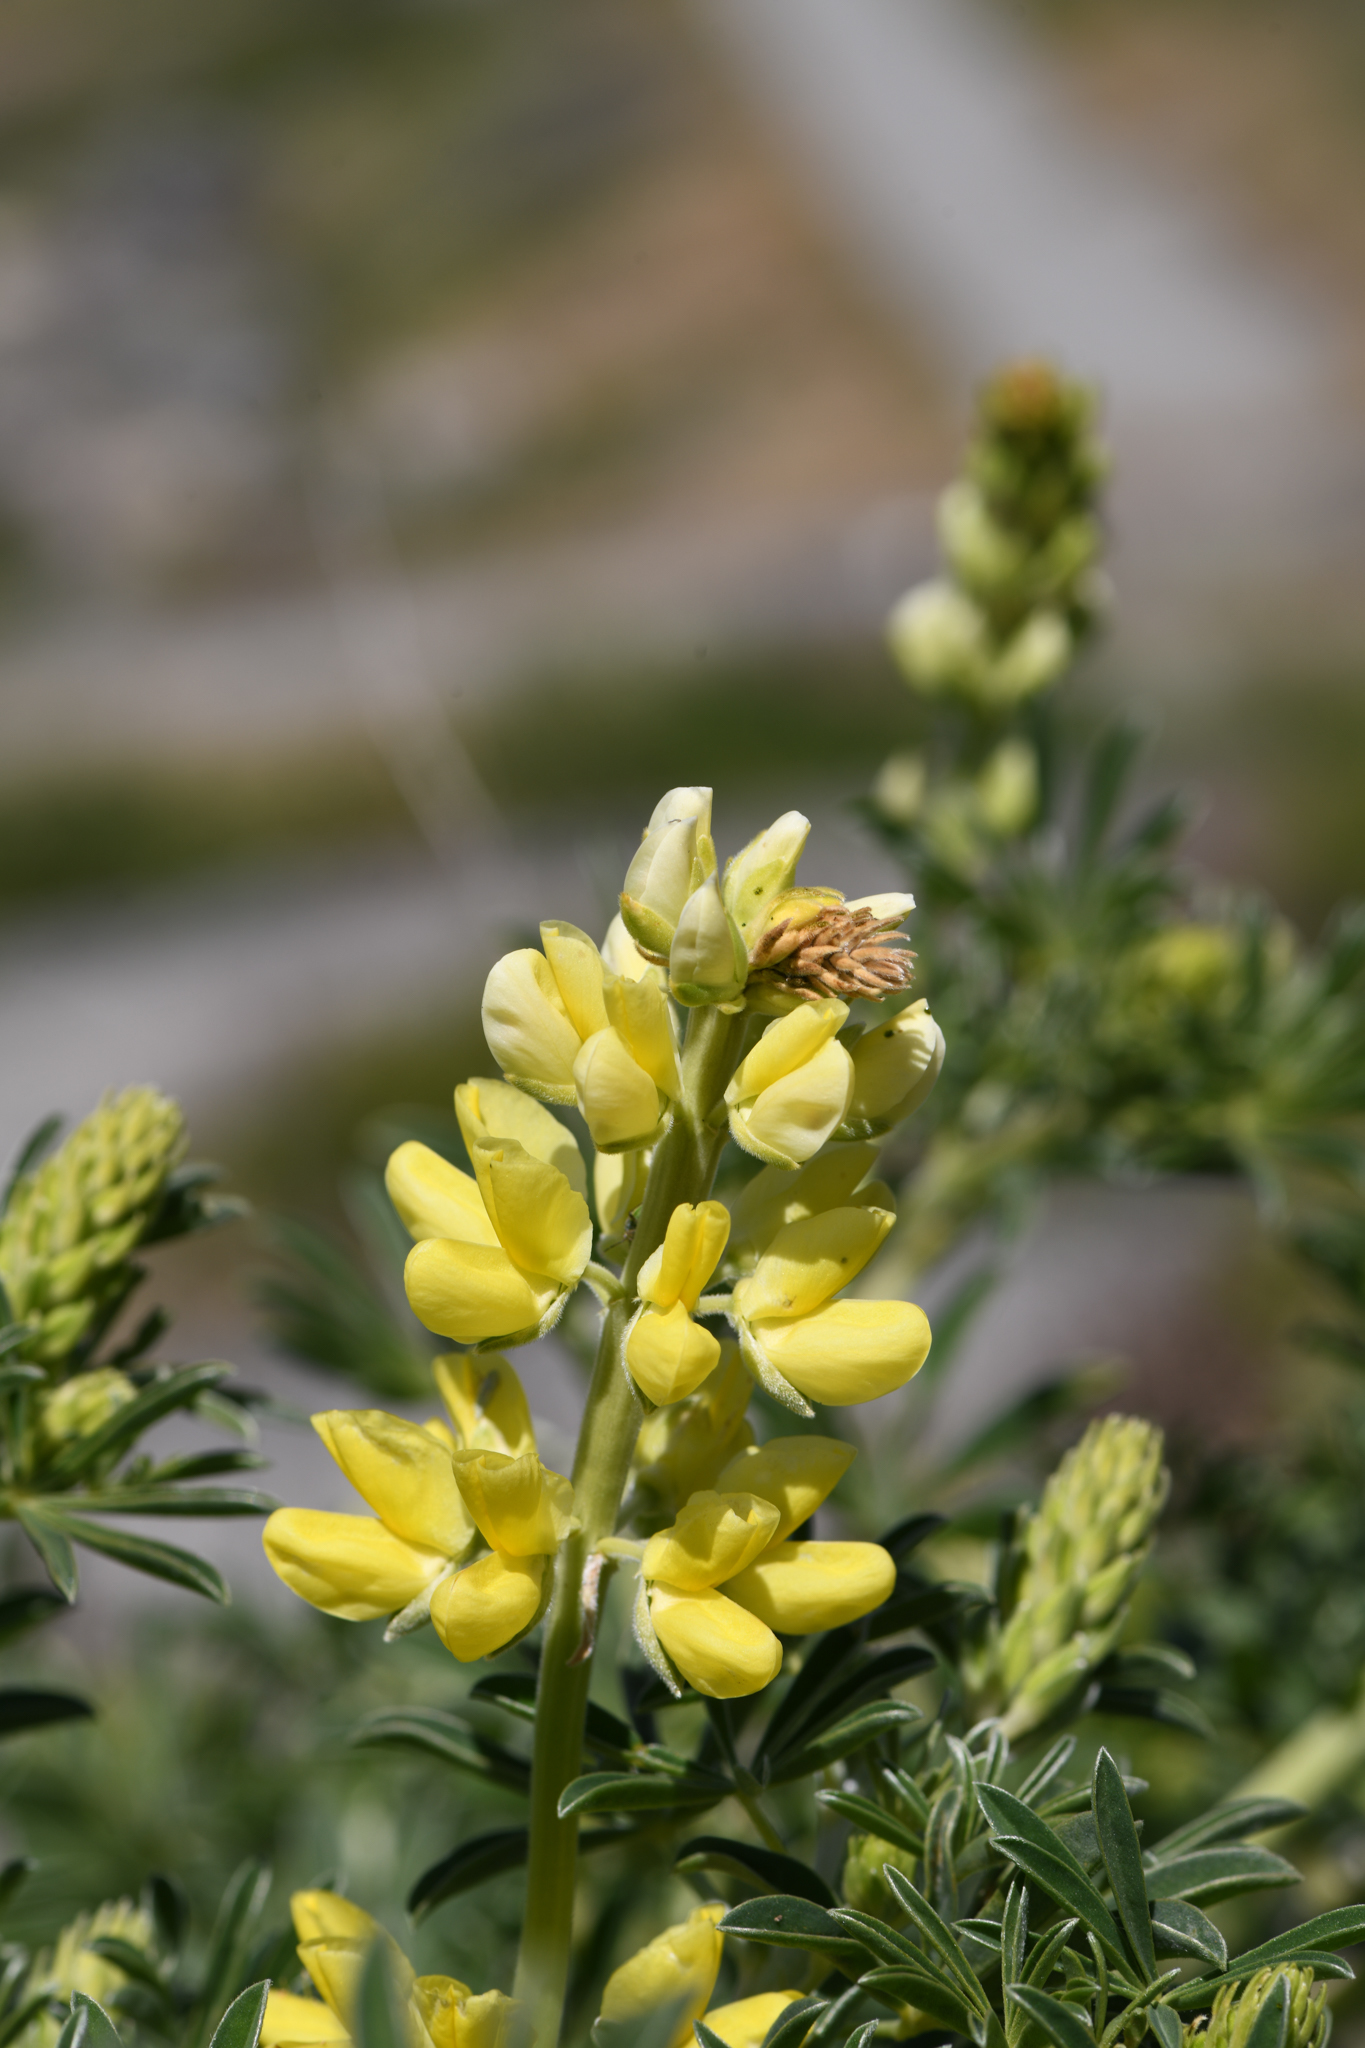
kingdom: Plantae
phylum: Tracheophyta
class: Magnoliopsida
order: Fabales
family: Fabaceae
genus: Lupinus
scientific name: Lupinus arboreus
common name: Yellow bush lupine
